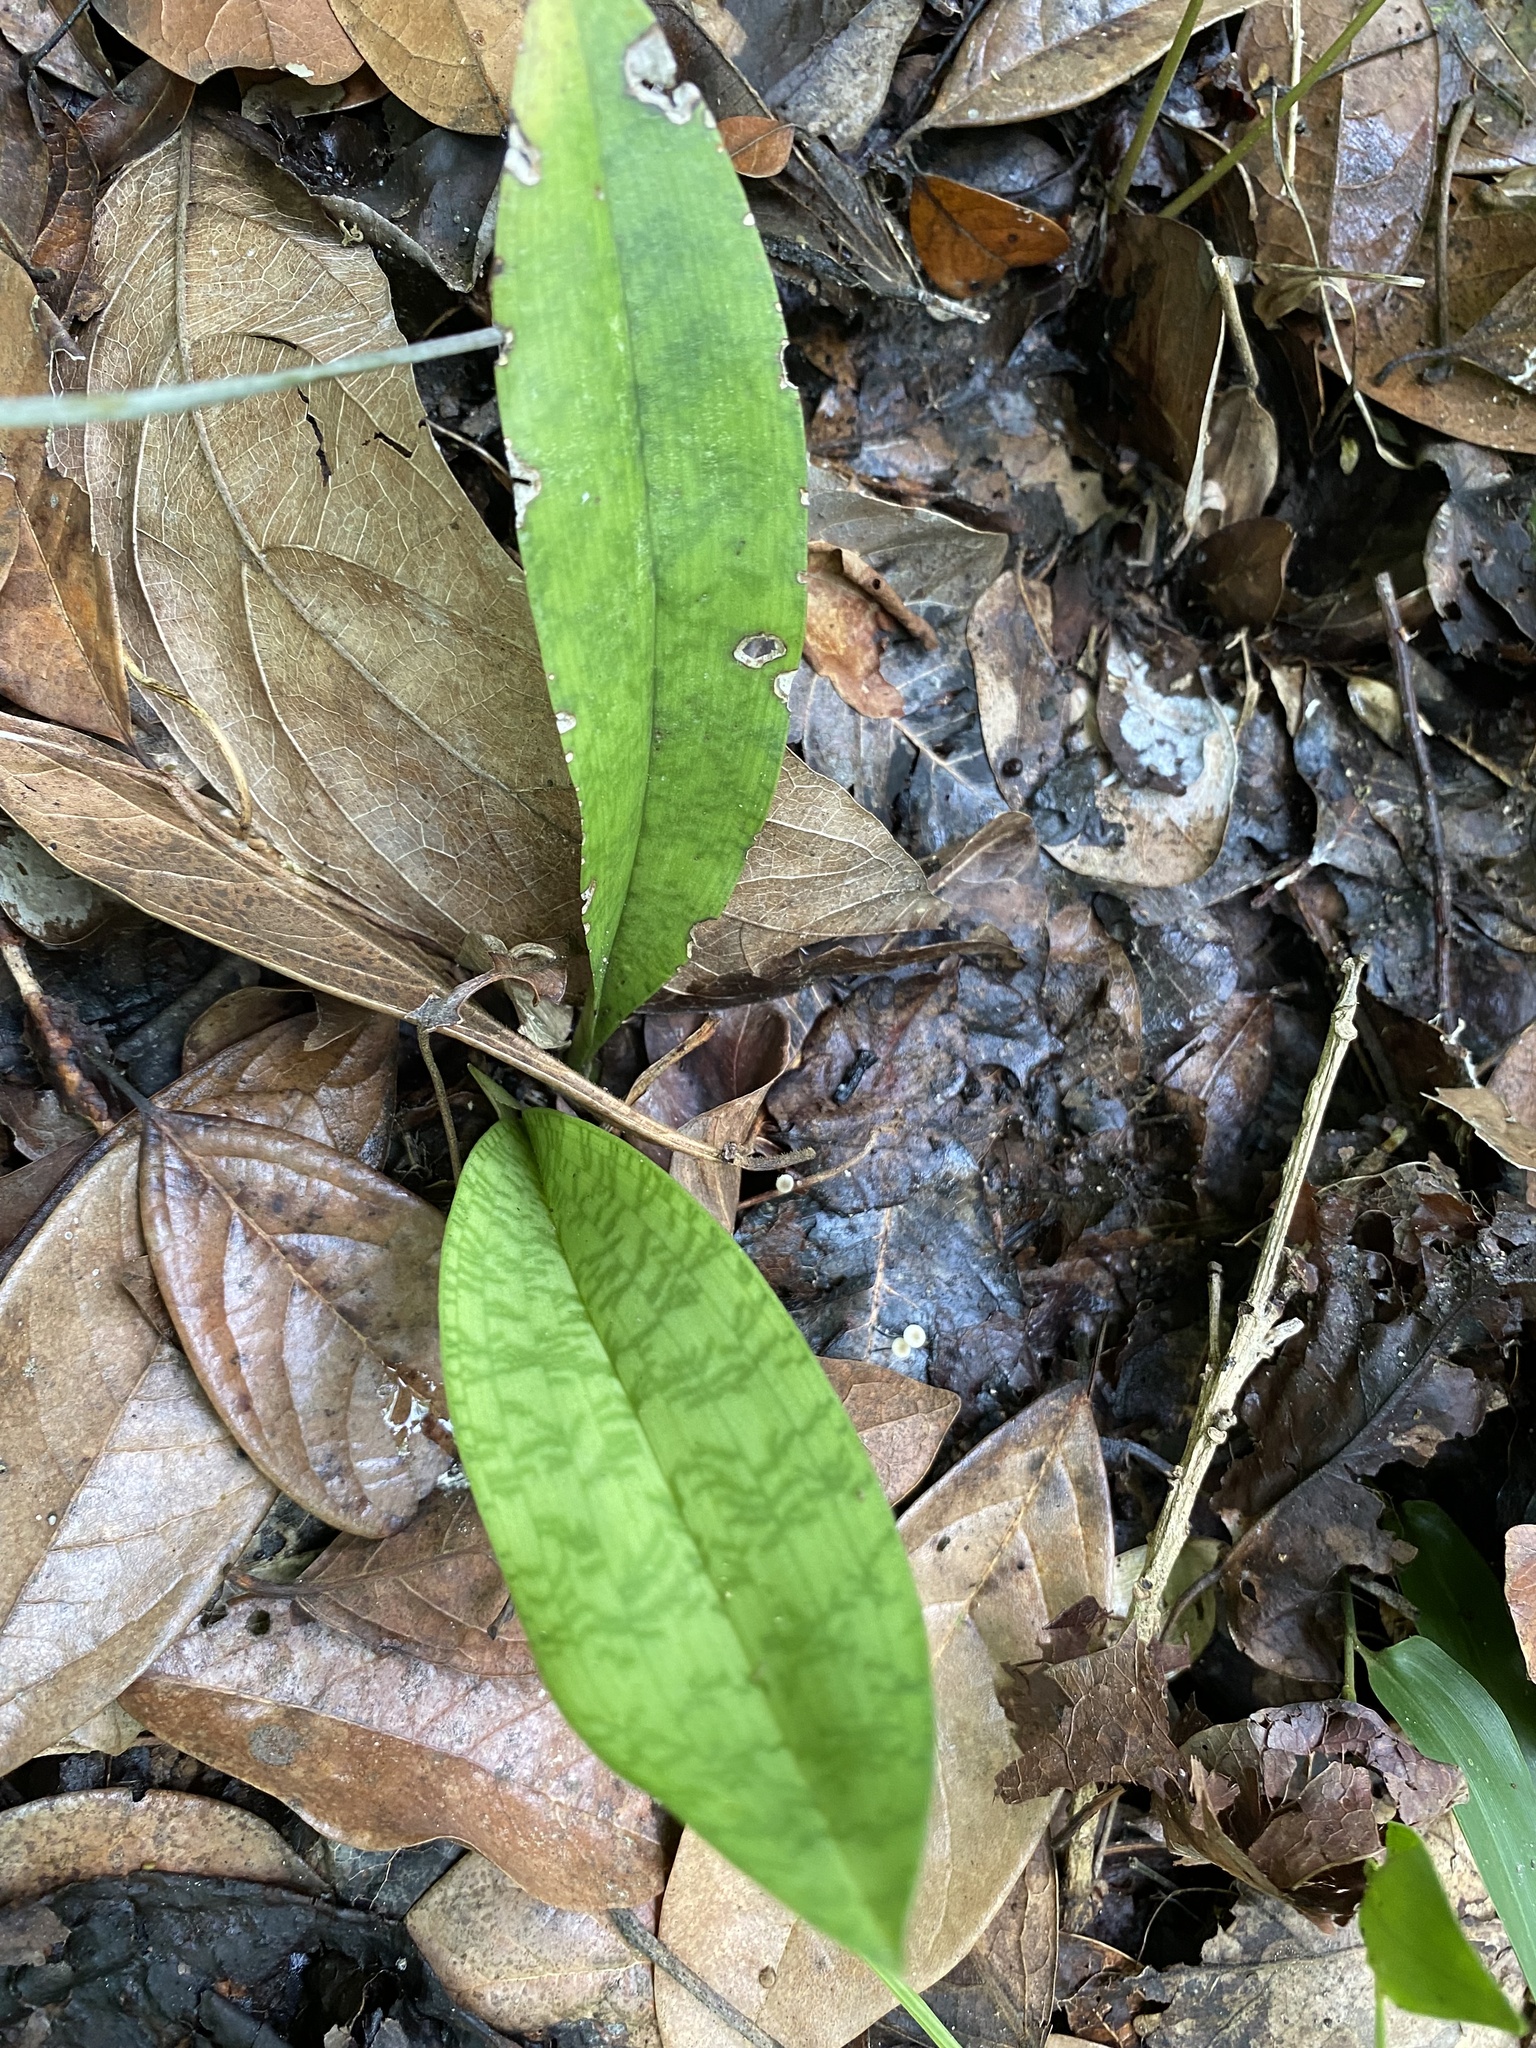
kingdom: Plantae
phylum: Tracheophyta
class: Liliopsida
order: Asparagales
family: Orchidaceae
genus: Eulophia
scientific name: Eulophia maculata
